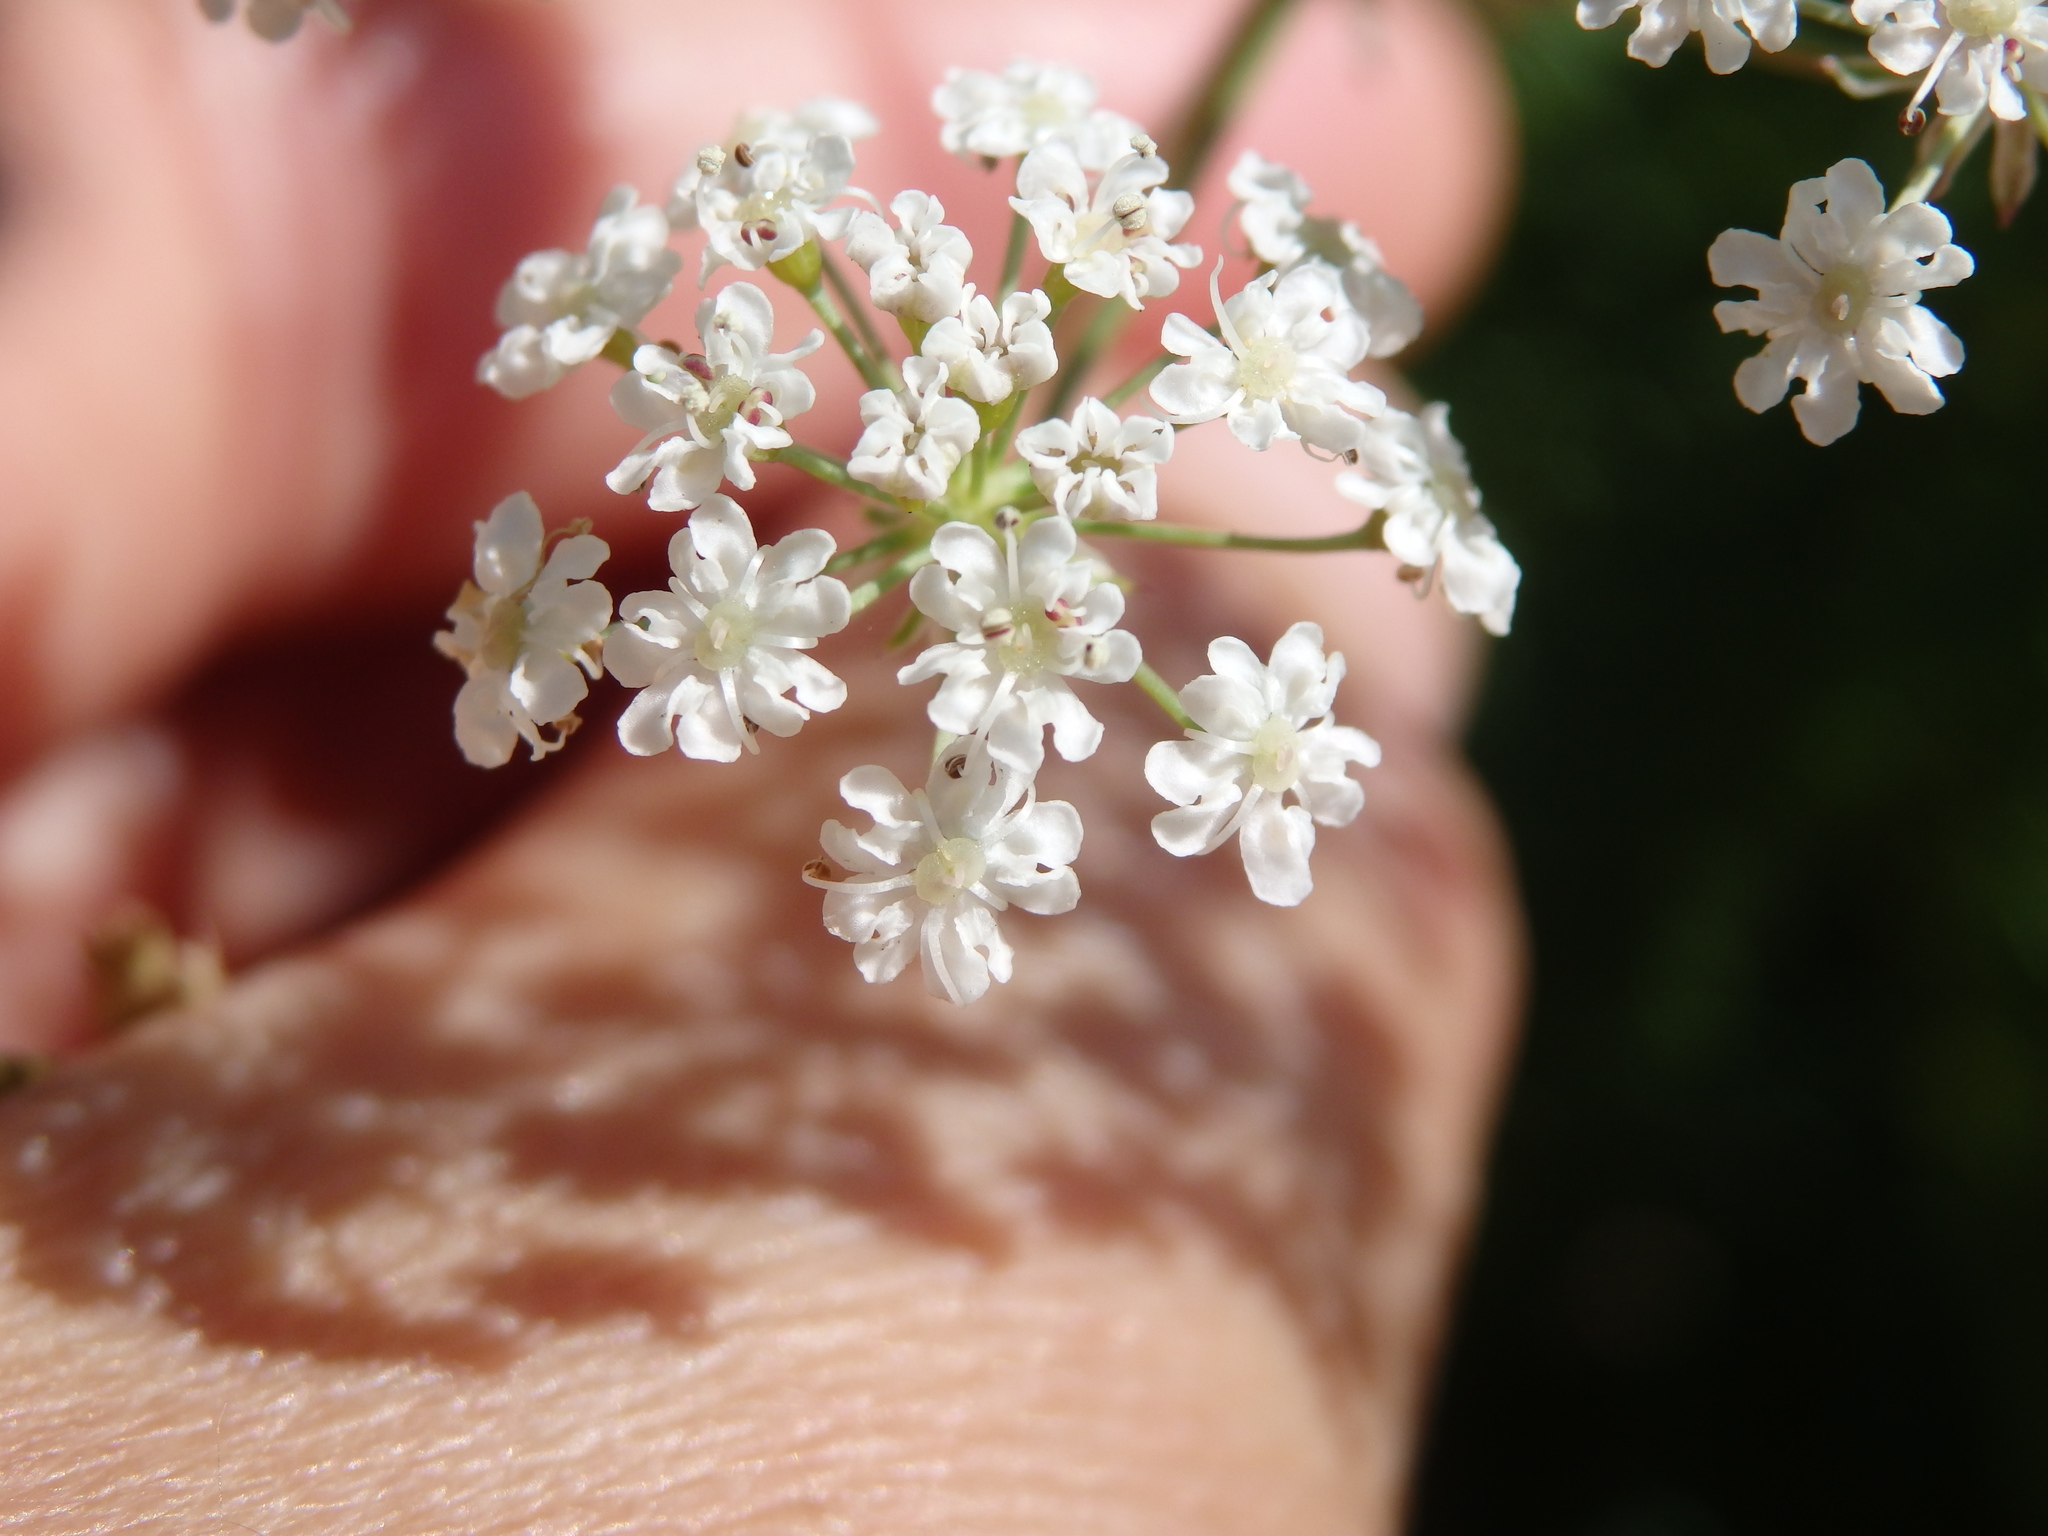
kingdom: Plantae
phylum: Tracheophyta
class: Magnoliopsida
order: Apiales
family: Apiaceae
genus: Trocdaris
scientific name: Trocdaris verticillatum
